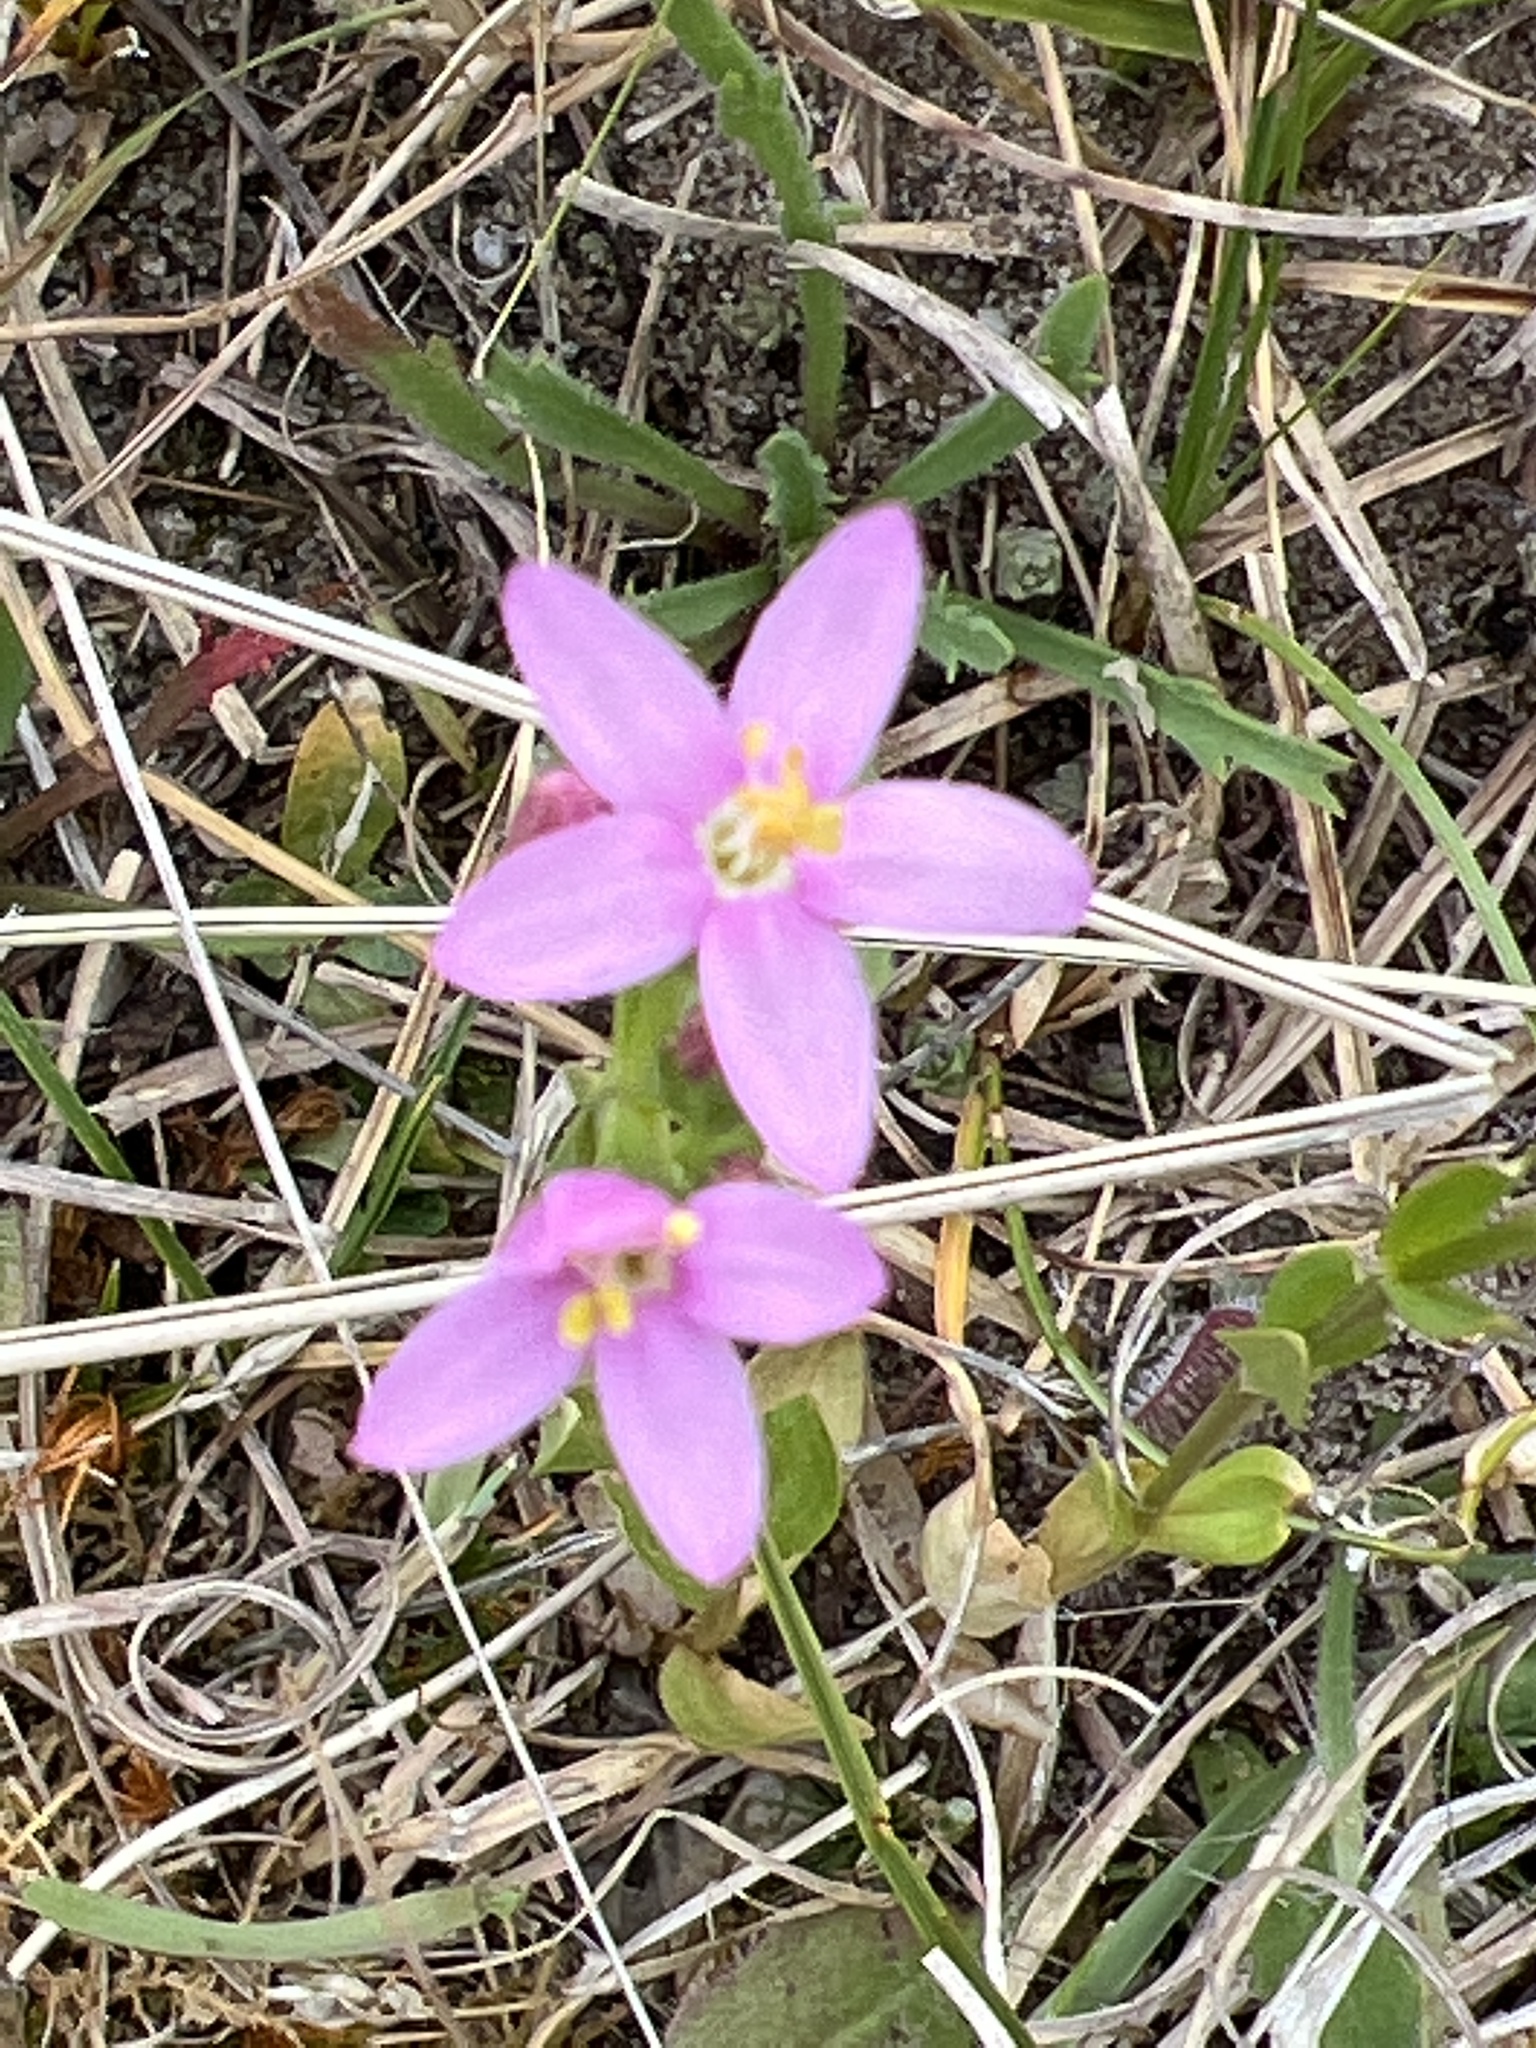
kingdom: Plantae
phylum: Tracheophyta
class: Magnoliopsida
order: Gentianales
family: Gentianaceae
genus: Centaurium
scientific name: Centaurium erythraea
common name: Common centaury
